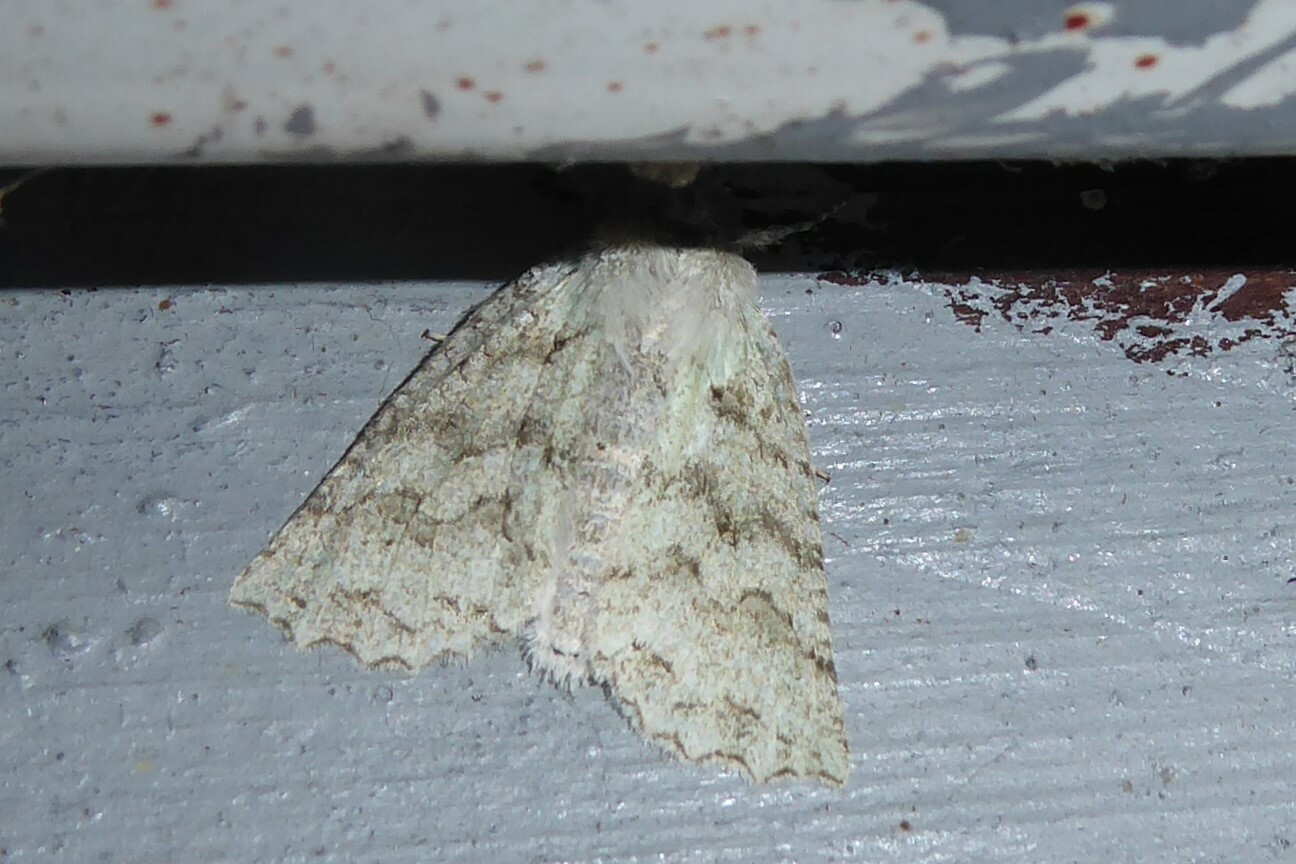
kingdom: Animalia
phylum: Arthropoda
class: Insecta
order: Lepidoptera
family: Geometridae
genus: Declana
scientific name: Declana niveata
